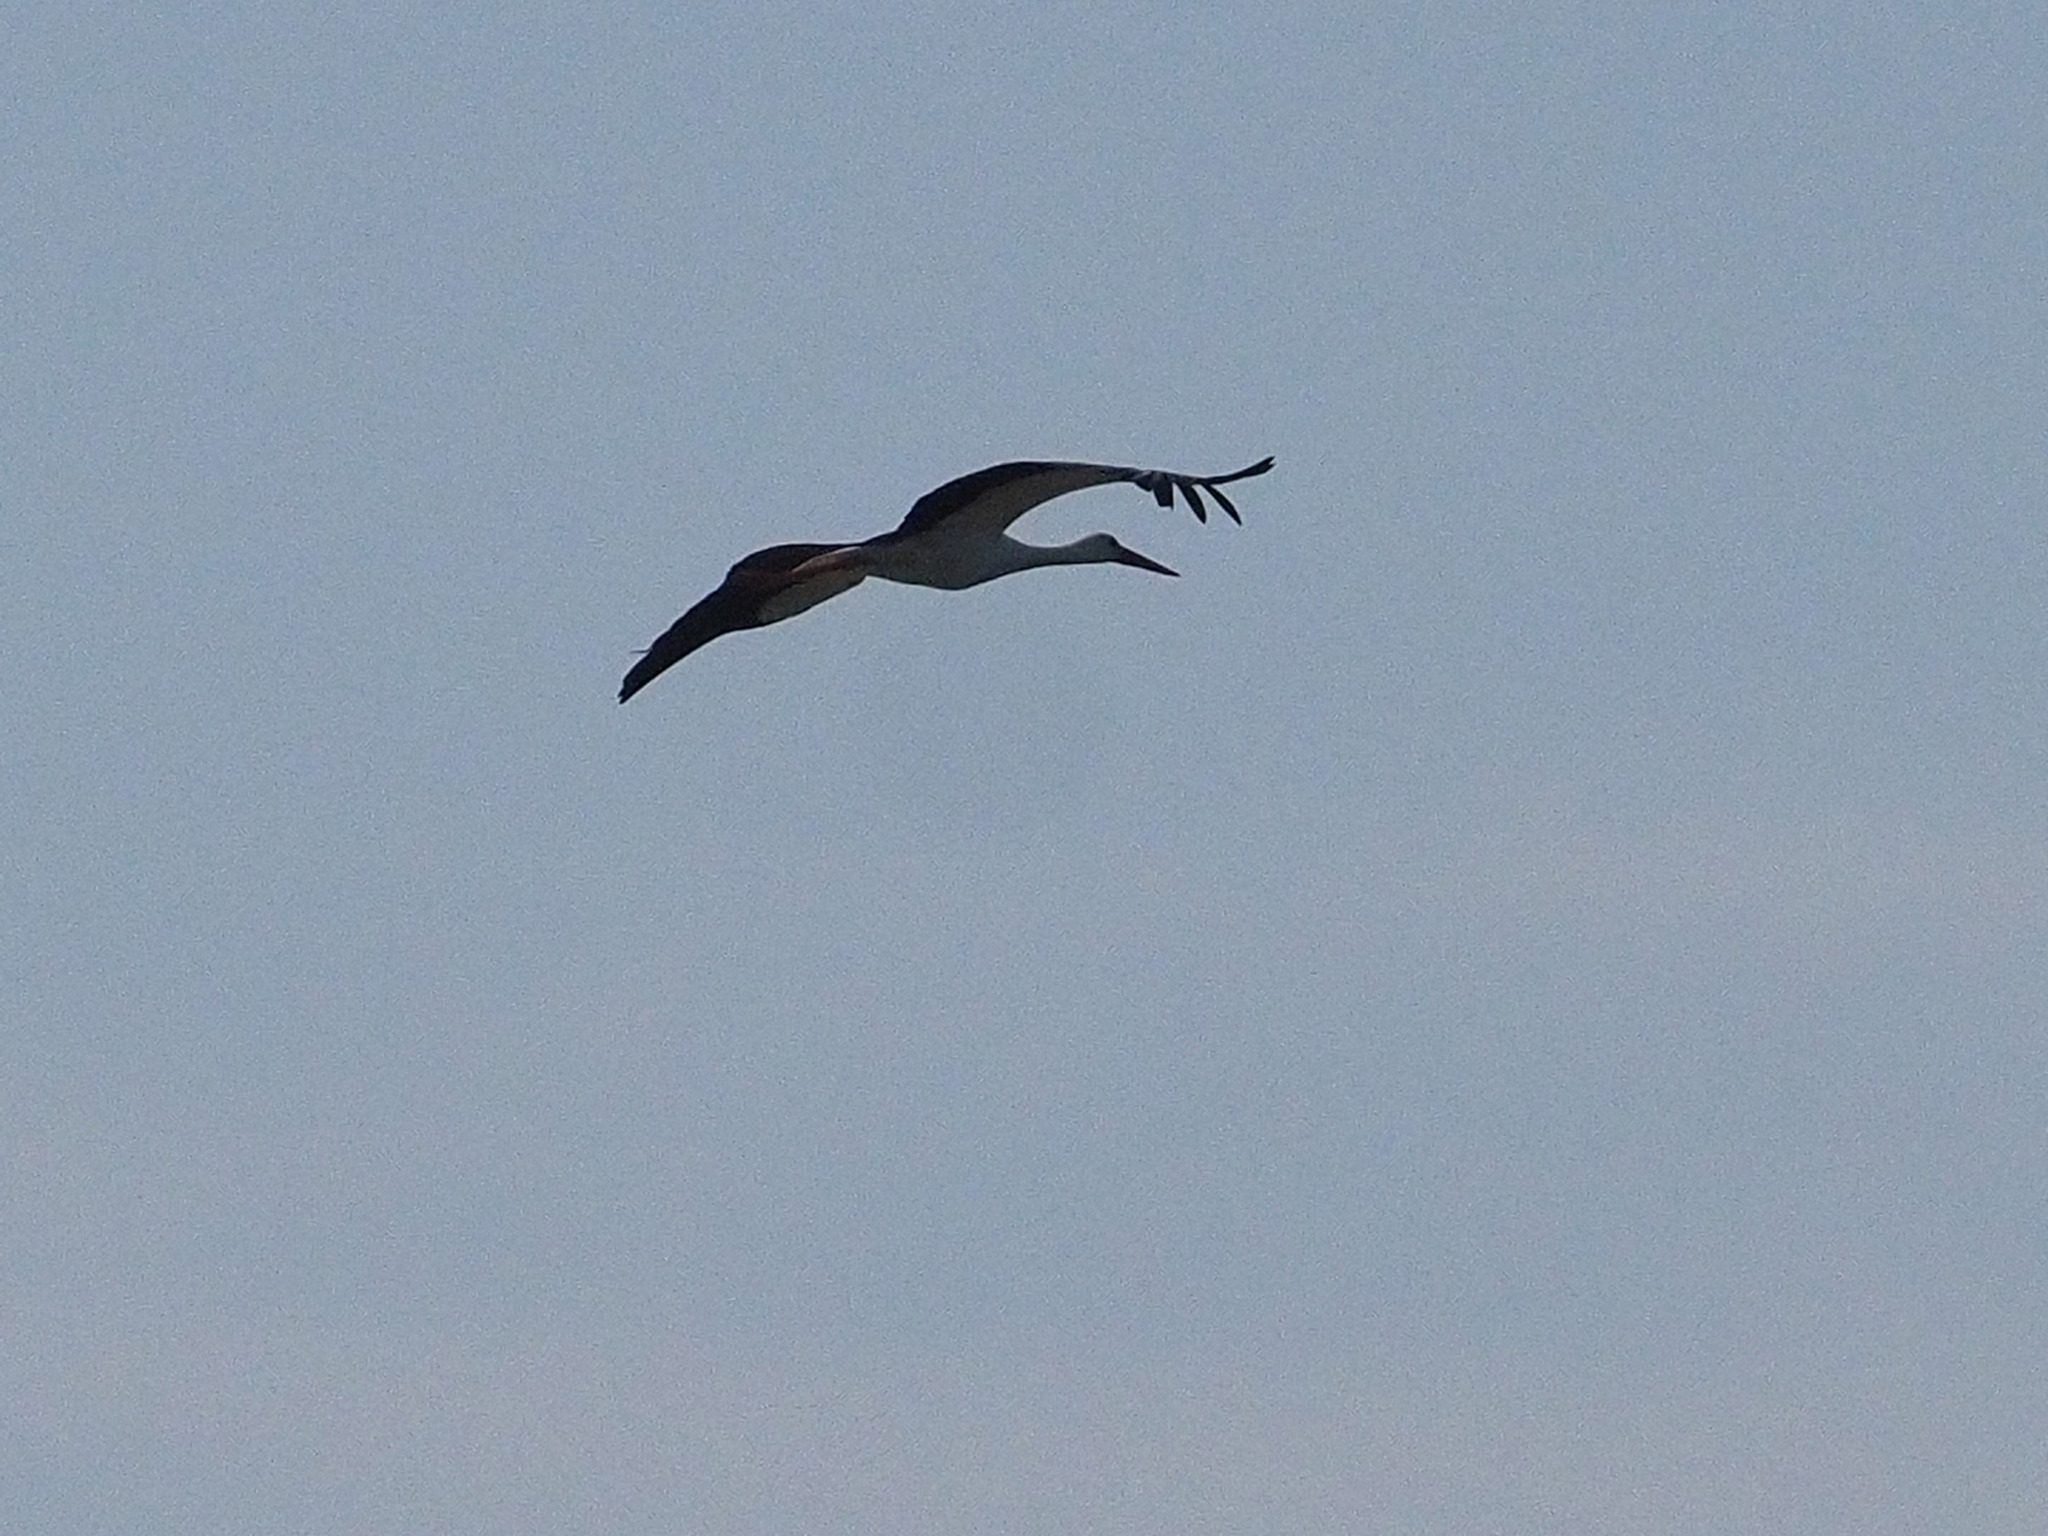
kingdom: Animalia
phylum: Chordata
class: Aves
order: Ciconiiformes
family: Ciconiidae
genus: Ciconia
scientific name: Ciconia ciconia
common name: White stork
